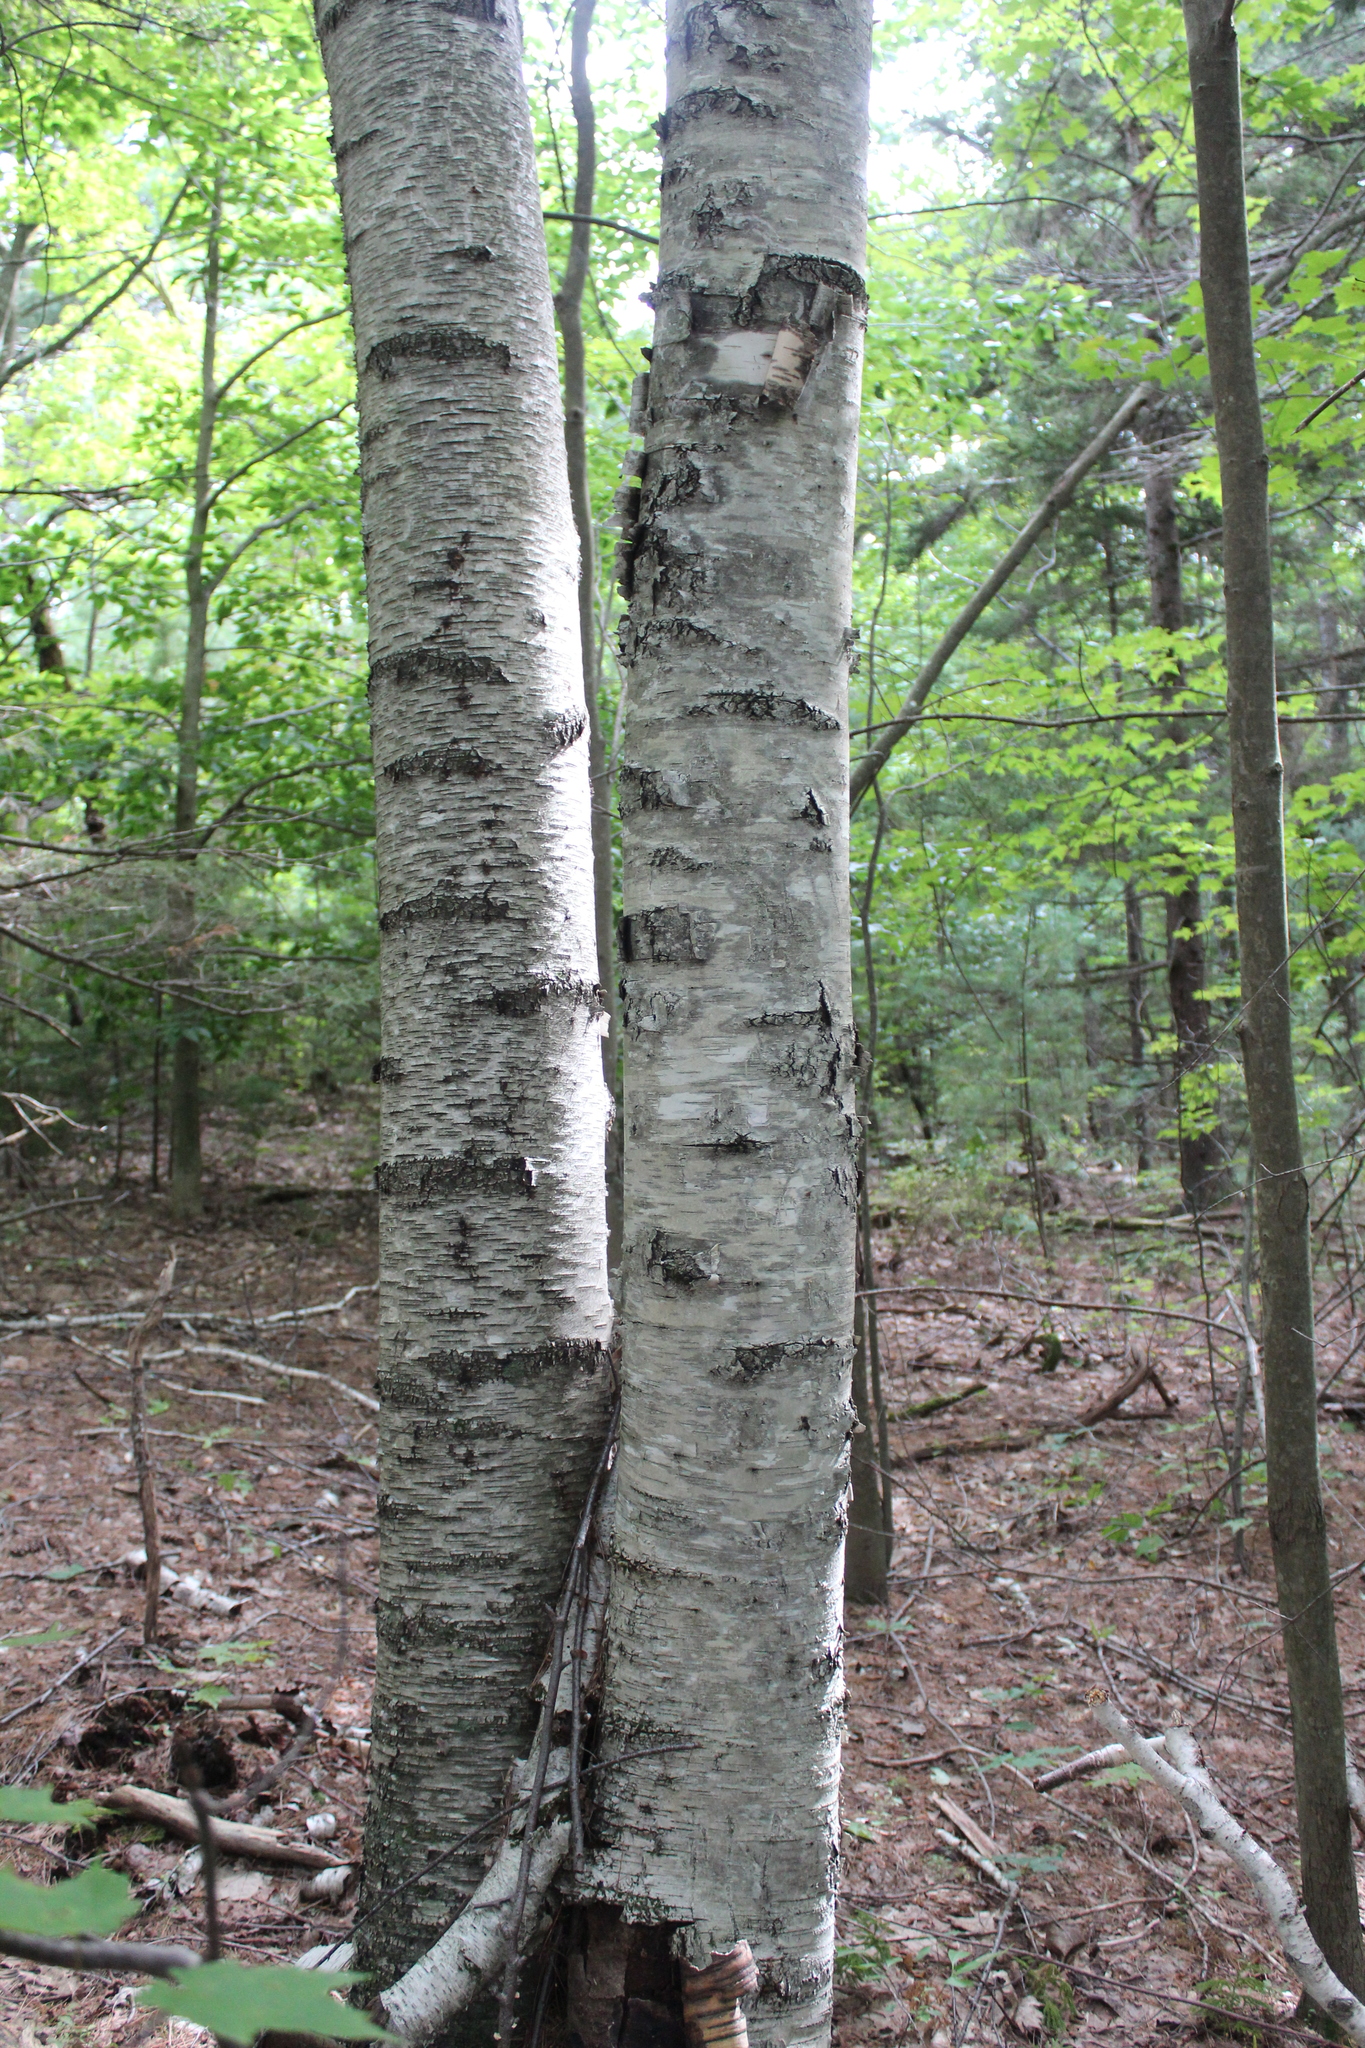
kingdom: Plantae
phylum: Tracheophyta
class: Magnoliopsida
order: Fagales
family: Betulaceae
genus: Betula
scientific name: Betula papyrifera
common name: Paper birch
